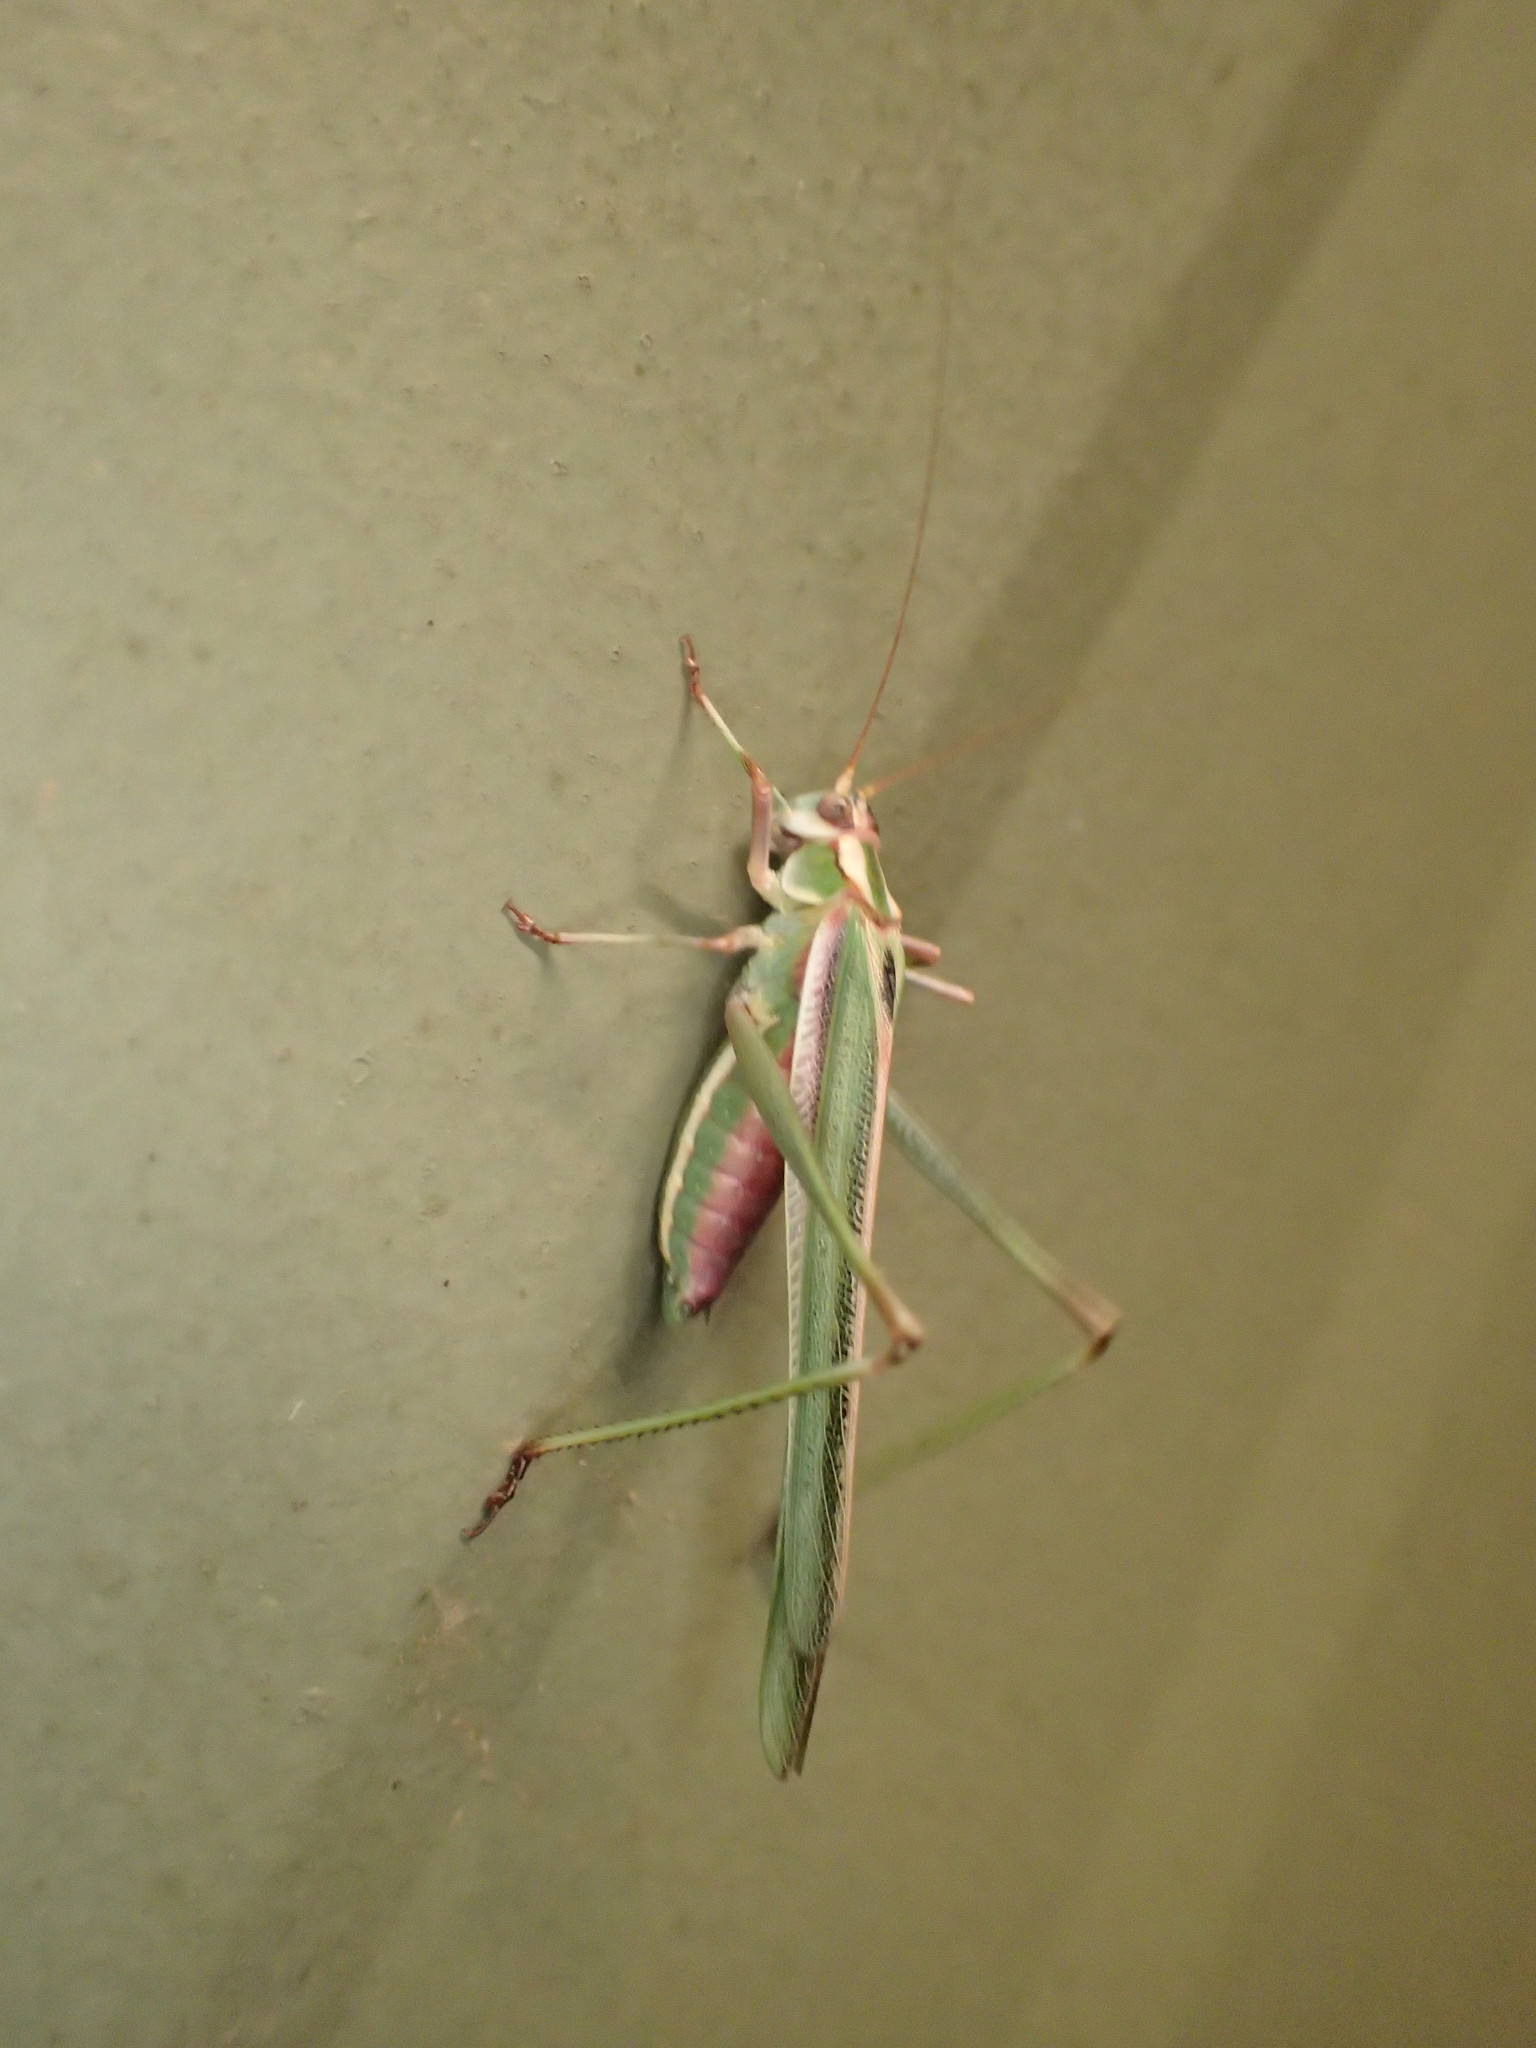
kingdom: Animalia
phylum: Arthropoda
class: Insecta
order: Orthoptera
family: Tettigoniidae
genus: Polichne
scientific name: Polichne argentata
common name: Striped polichne
